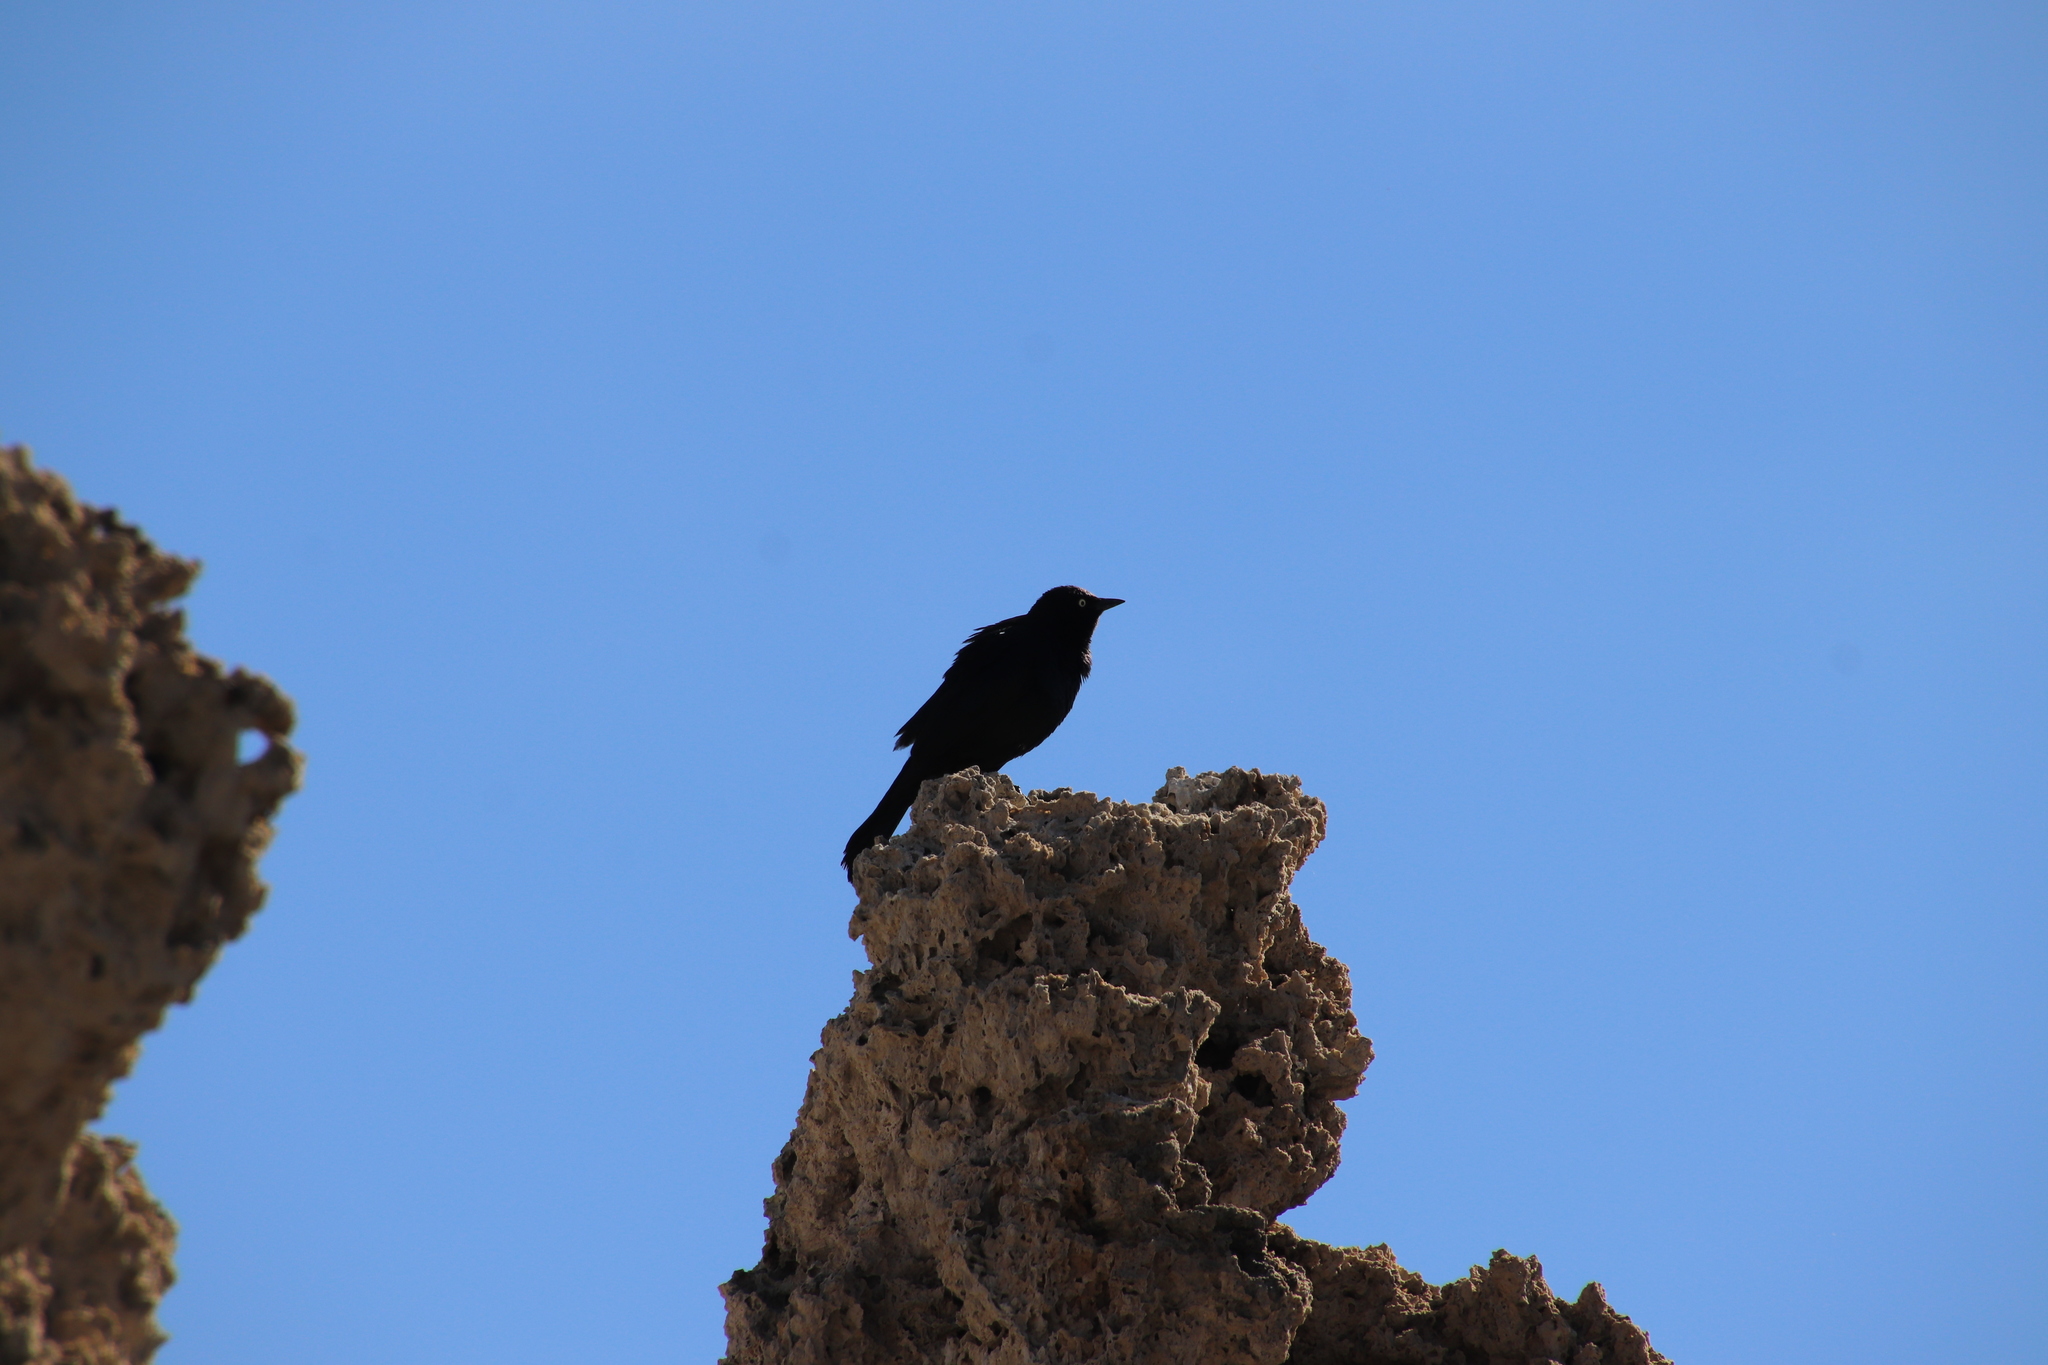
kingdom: Animalia
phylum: Chordata
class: Aves
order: Passeriformes
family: Icteridae
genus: Euphagus
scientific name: Euphagus cyanocephalus
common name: Brewer's blackbird
